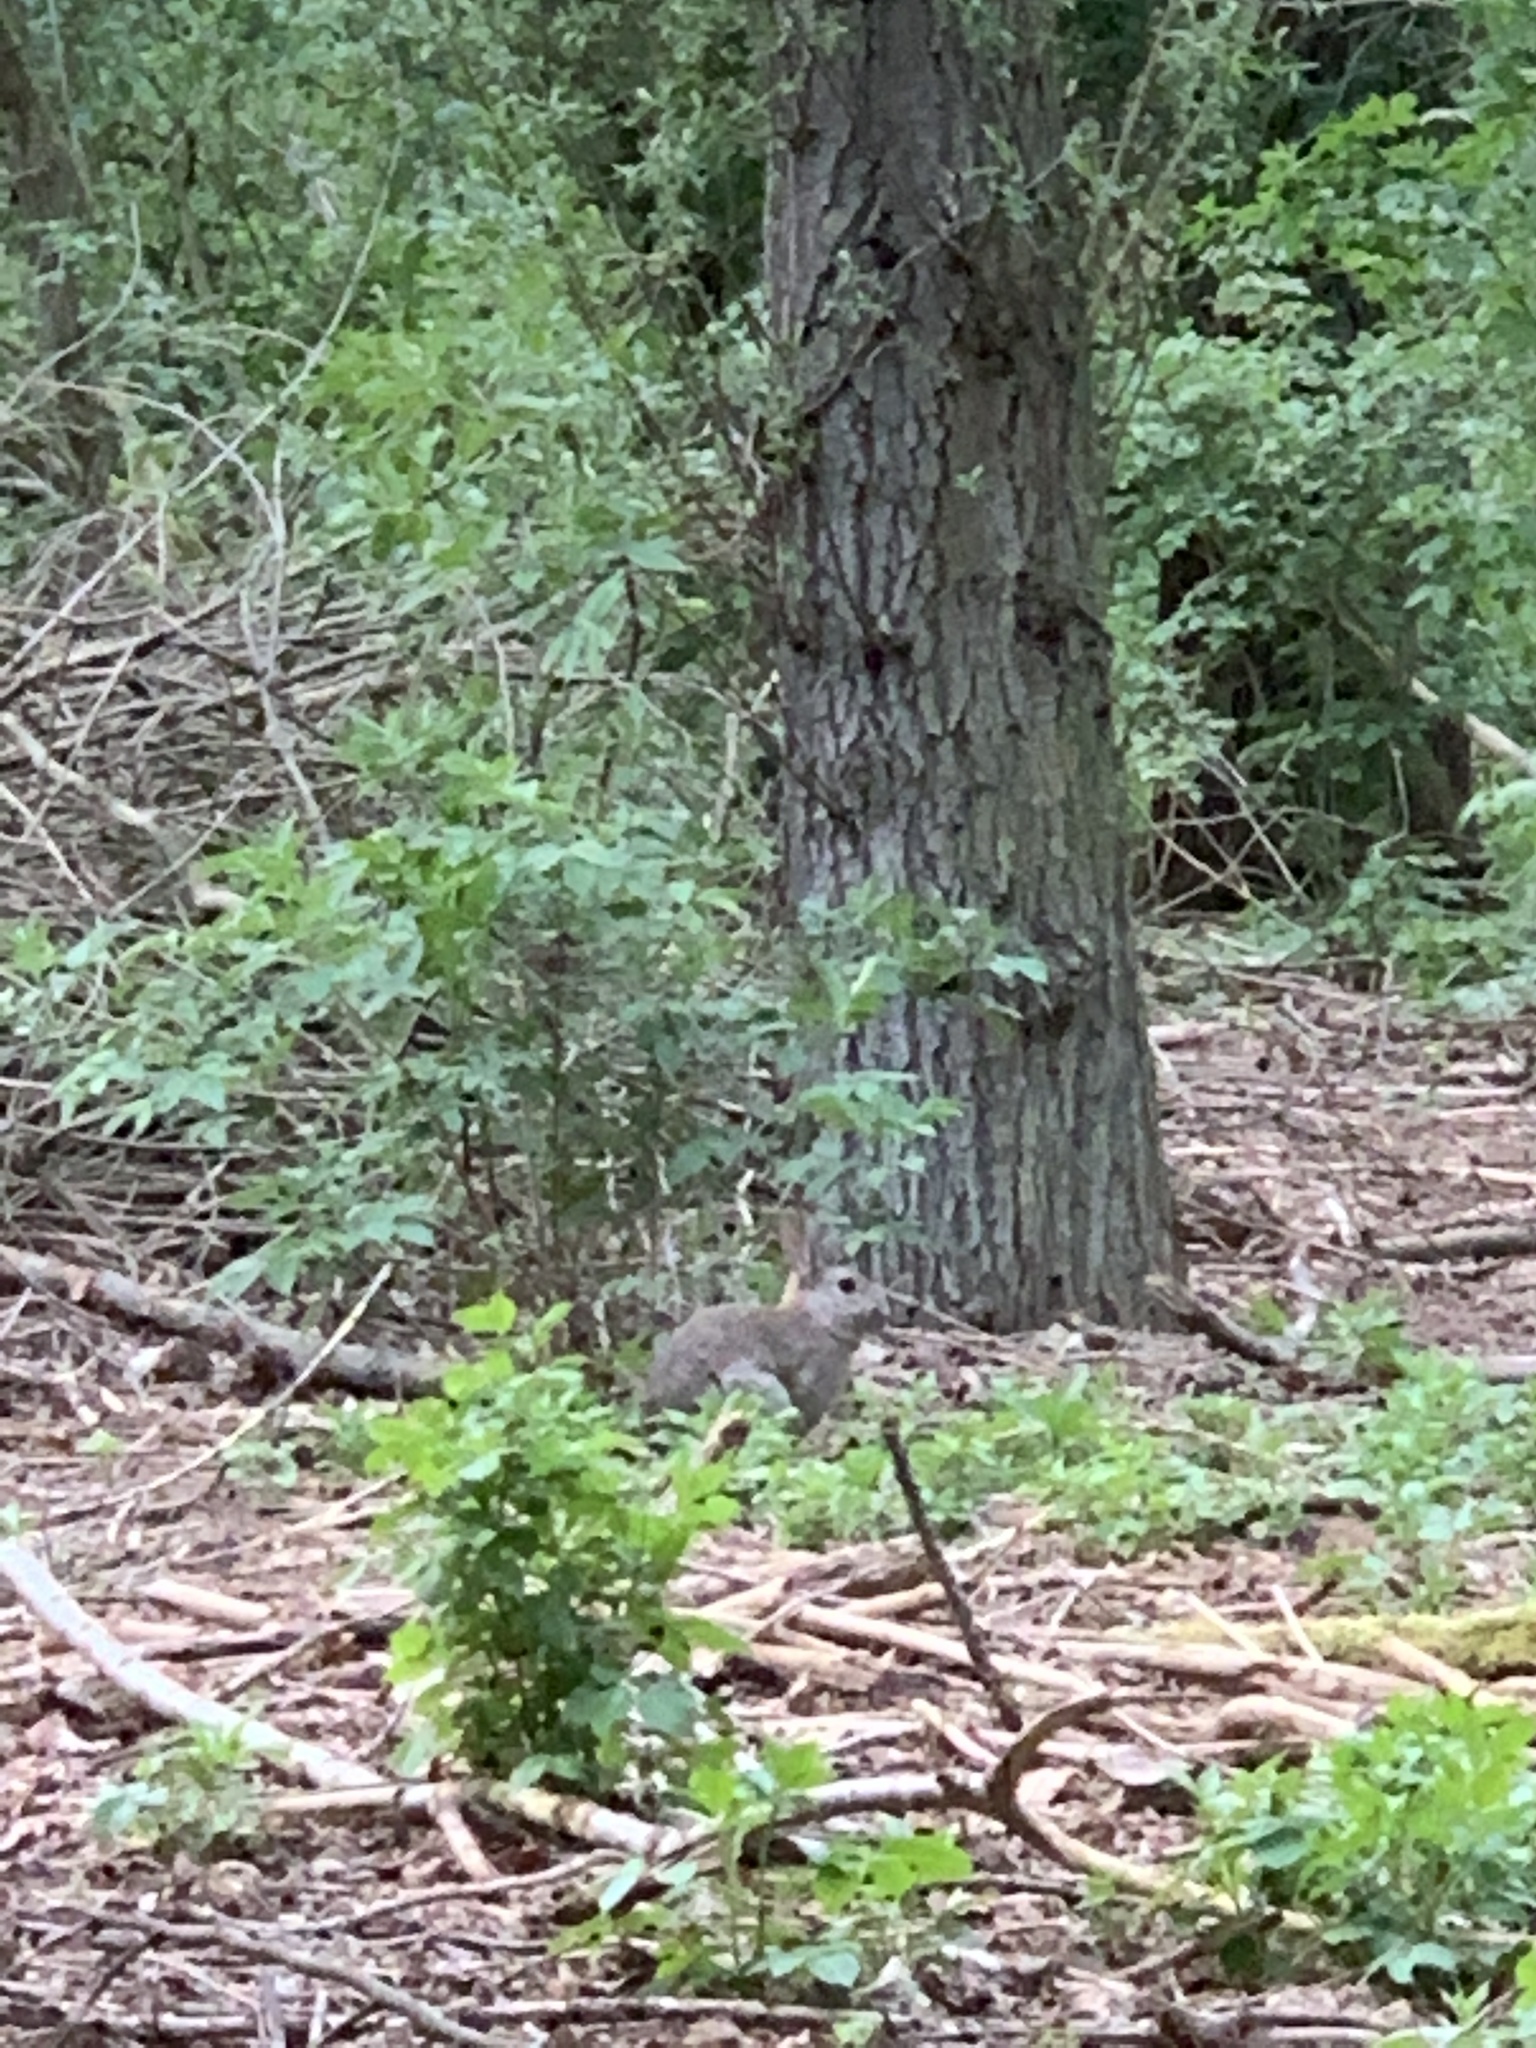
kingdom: Animalia
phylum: Chordata
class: Mammalia
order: Lagomorpha
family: Leporidae
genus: Oryctolagus
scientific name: Oryctolagus cuniculus
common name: European rabbit
